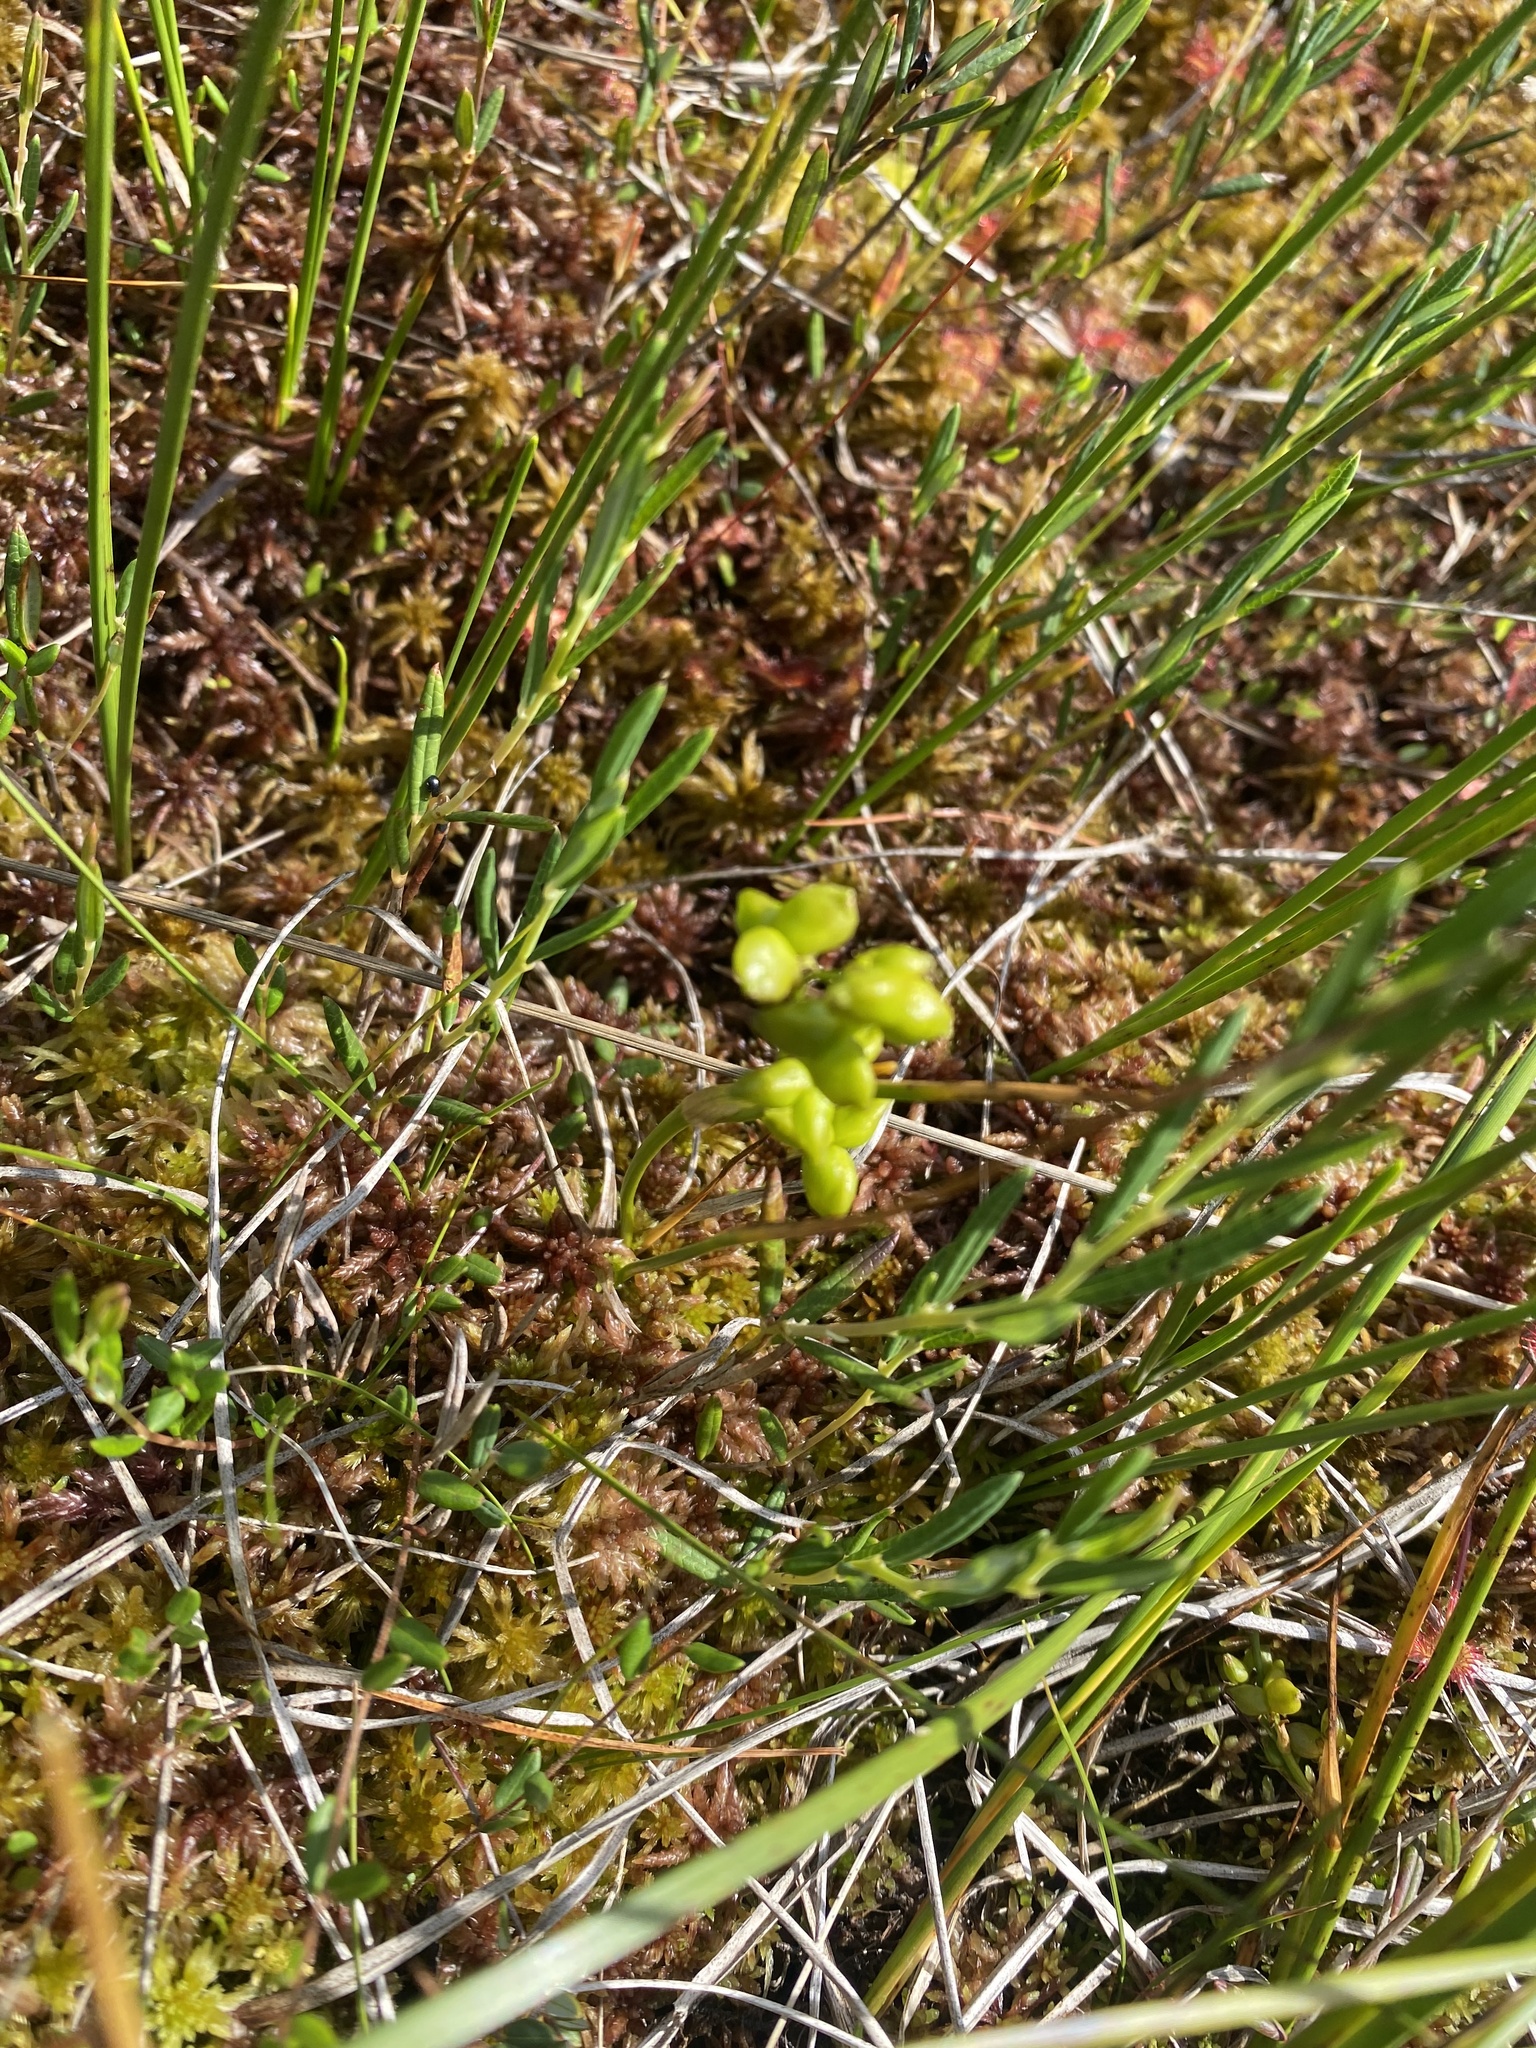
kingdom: Plantae
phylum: Tracheophyta
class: Liliopsida
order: Alismatales
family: Scheuchzeriaceae
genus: Scheuchzeria
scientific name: Scheuchzeria palustris
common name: Rannoch-rush
